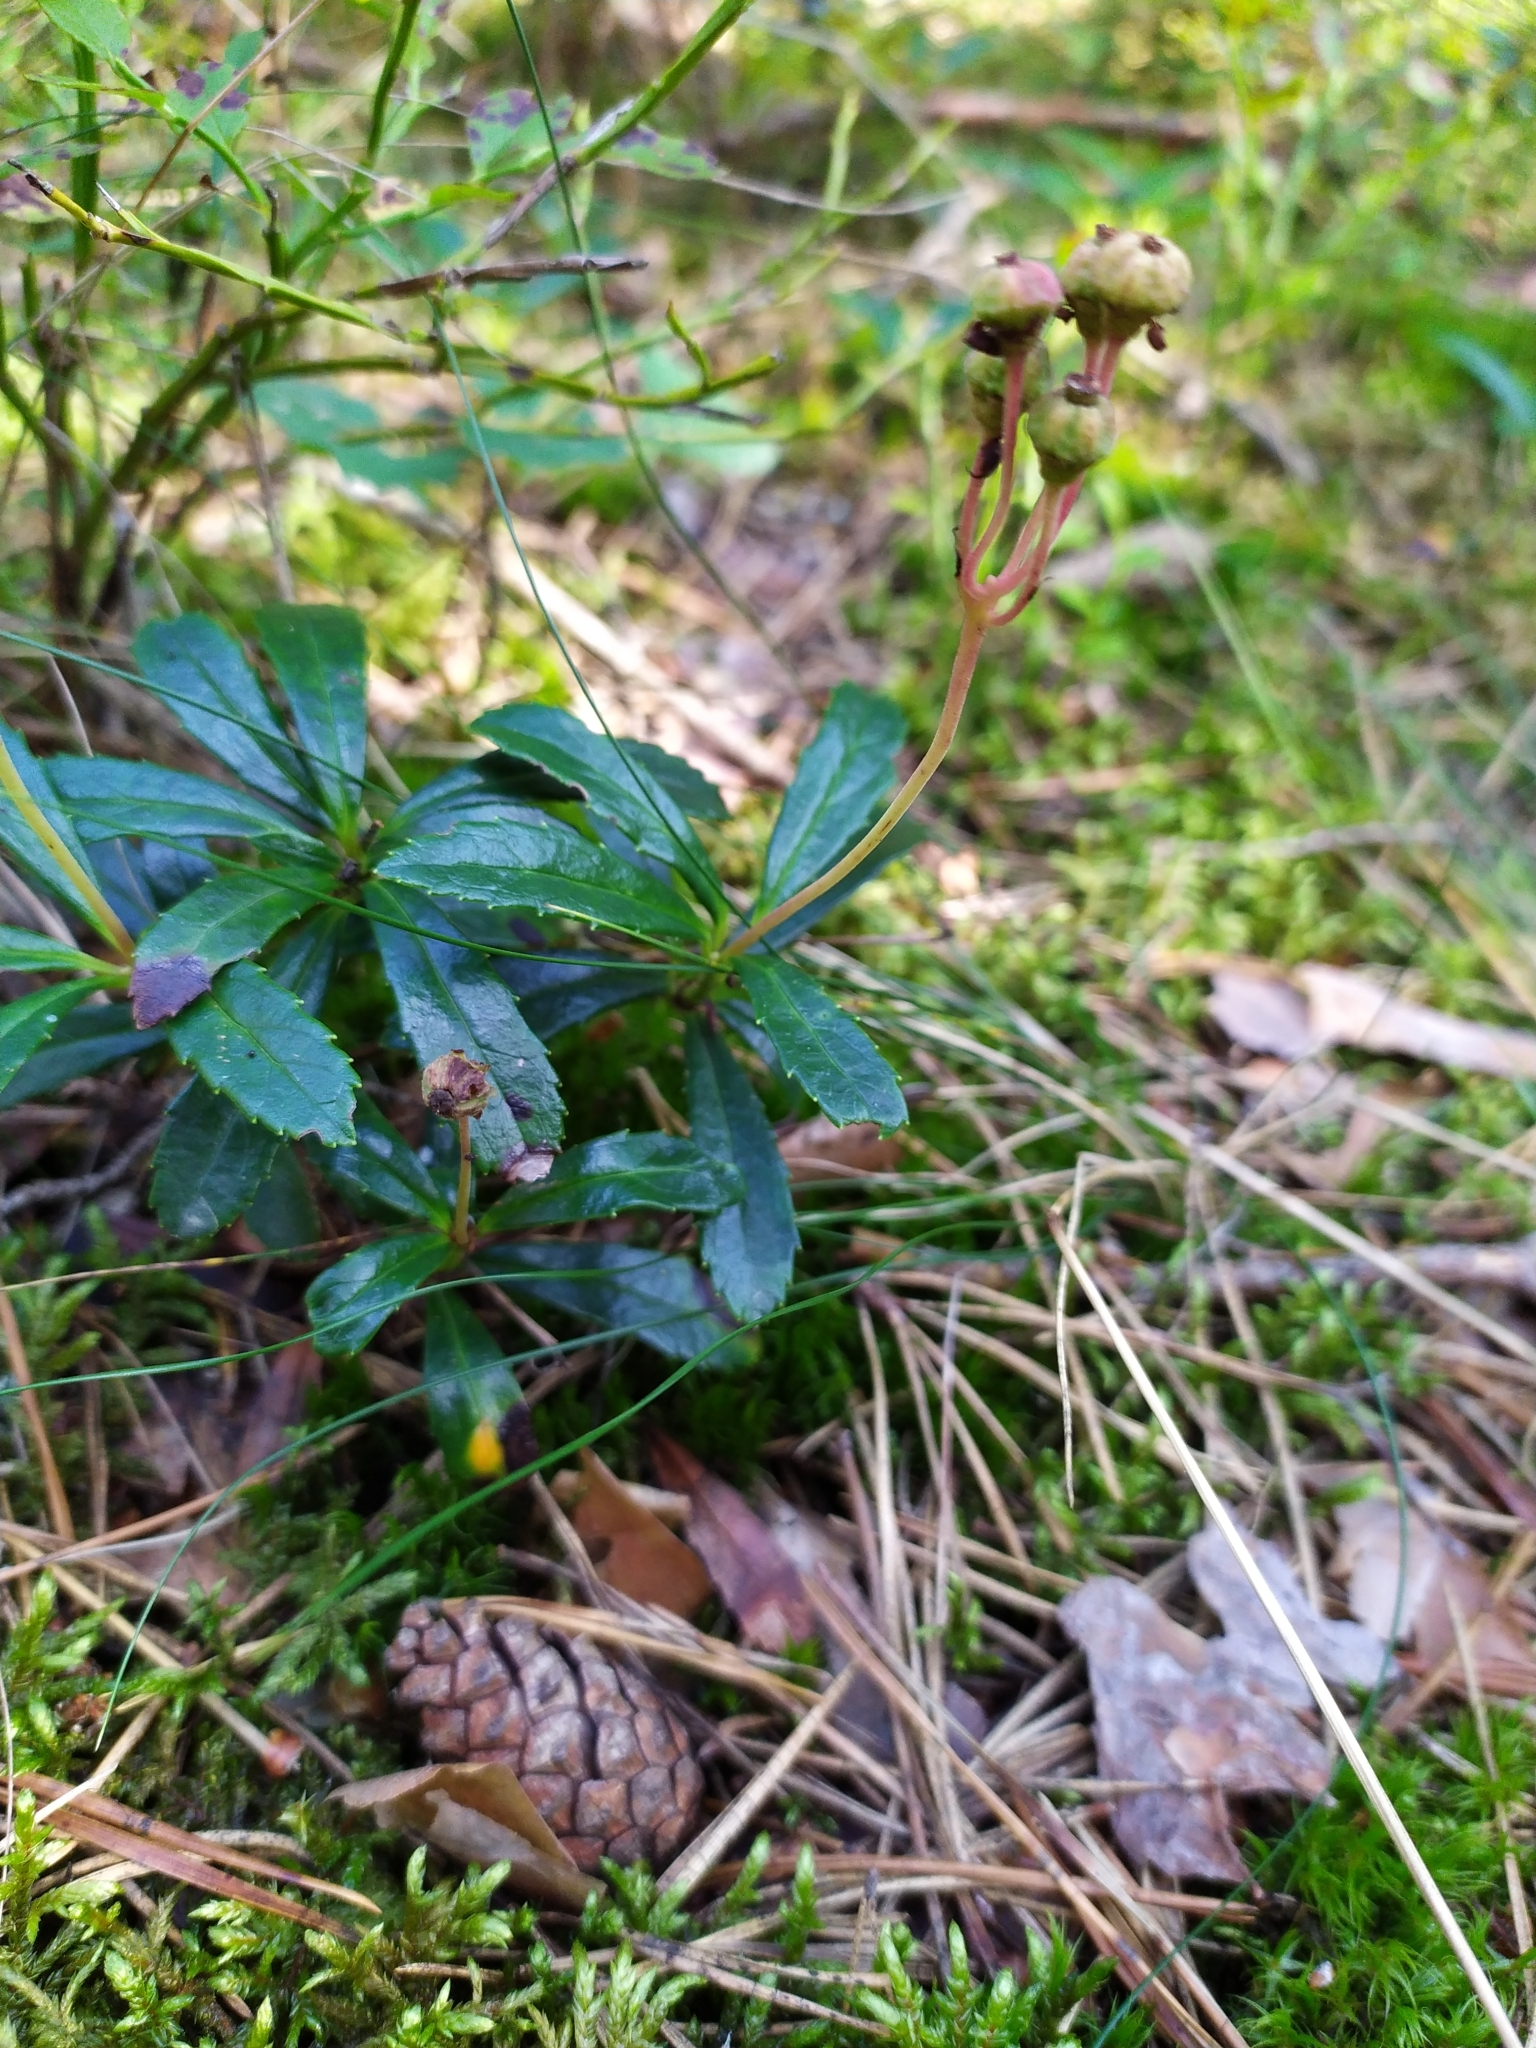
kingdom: Plantae
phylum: Tracheophyta
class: Magnoliopsida
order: Ericales
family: Ericaceae
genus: Chimaphila
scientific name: Chimaphila umbellata
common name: Pipsissewa
